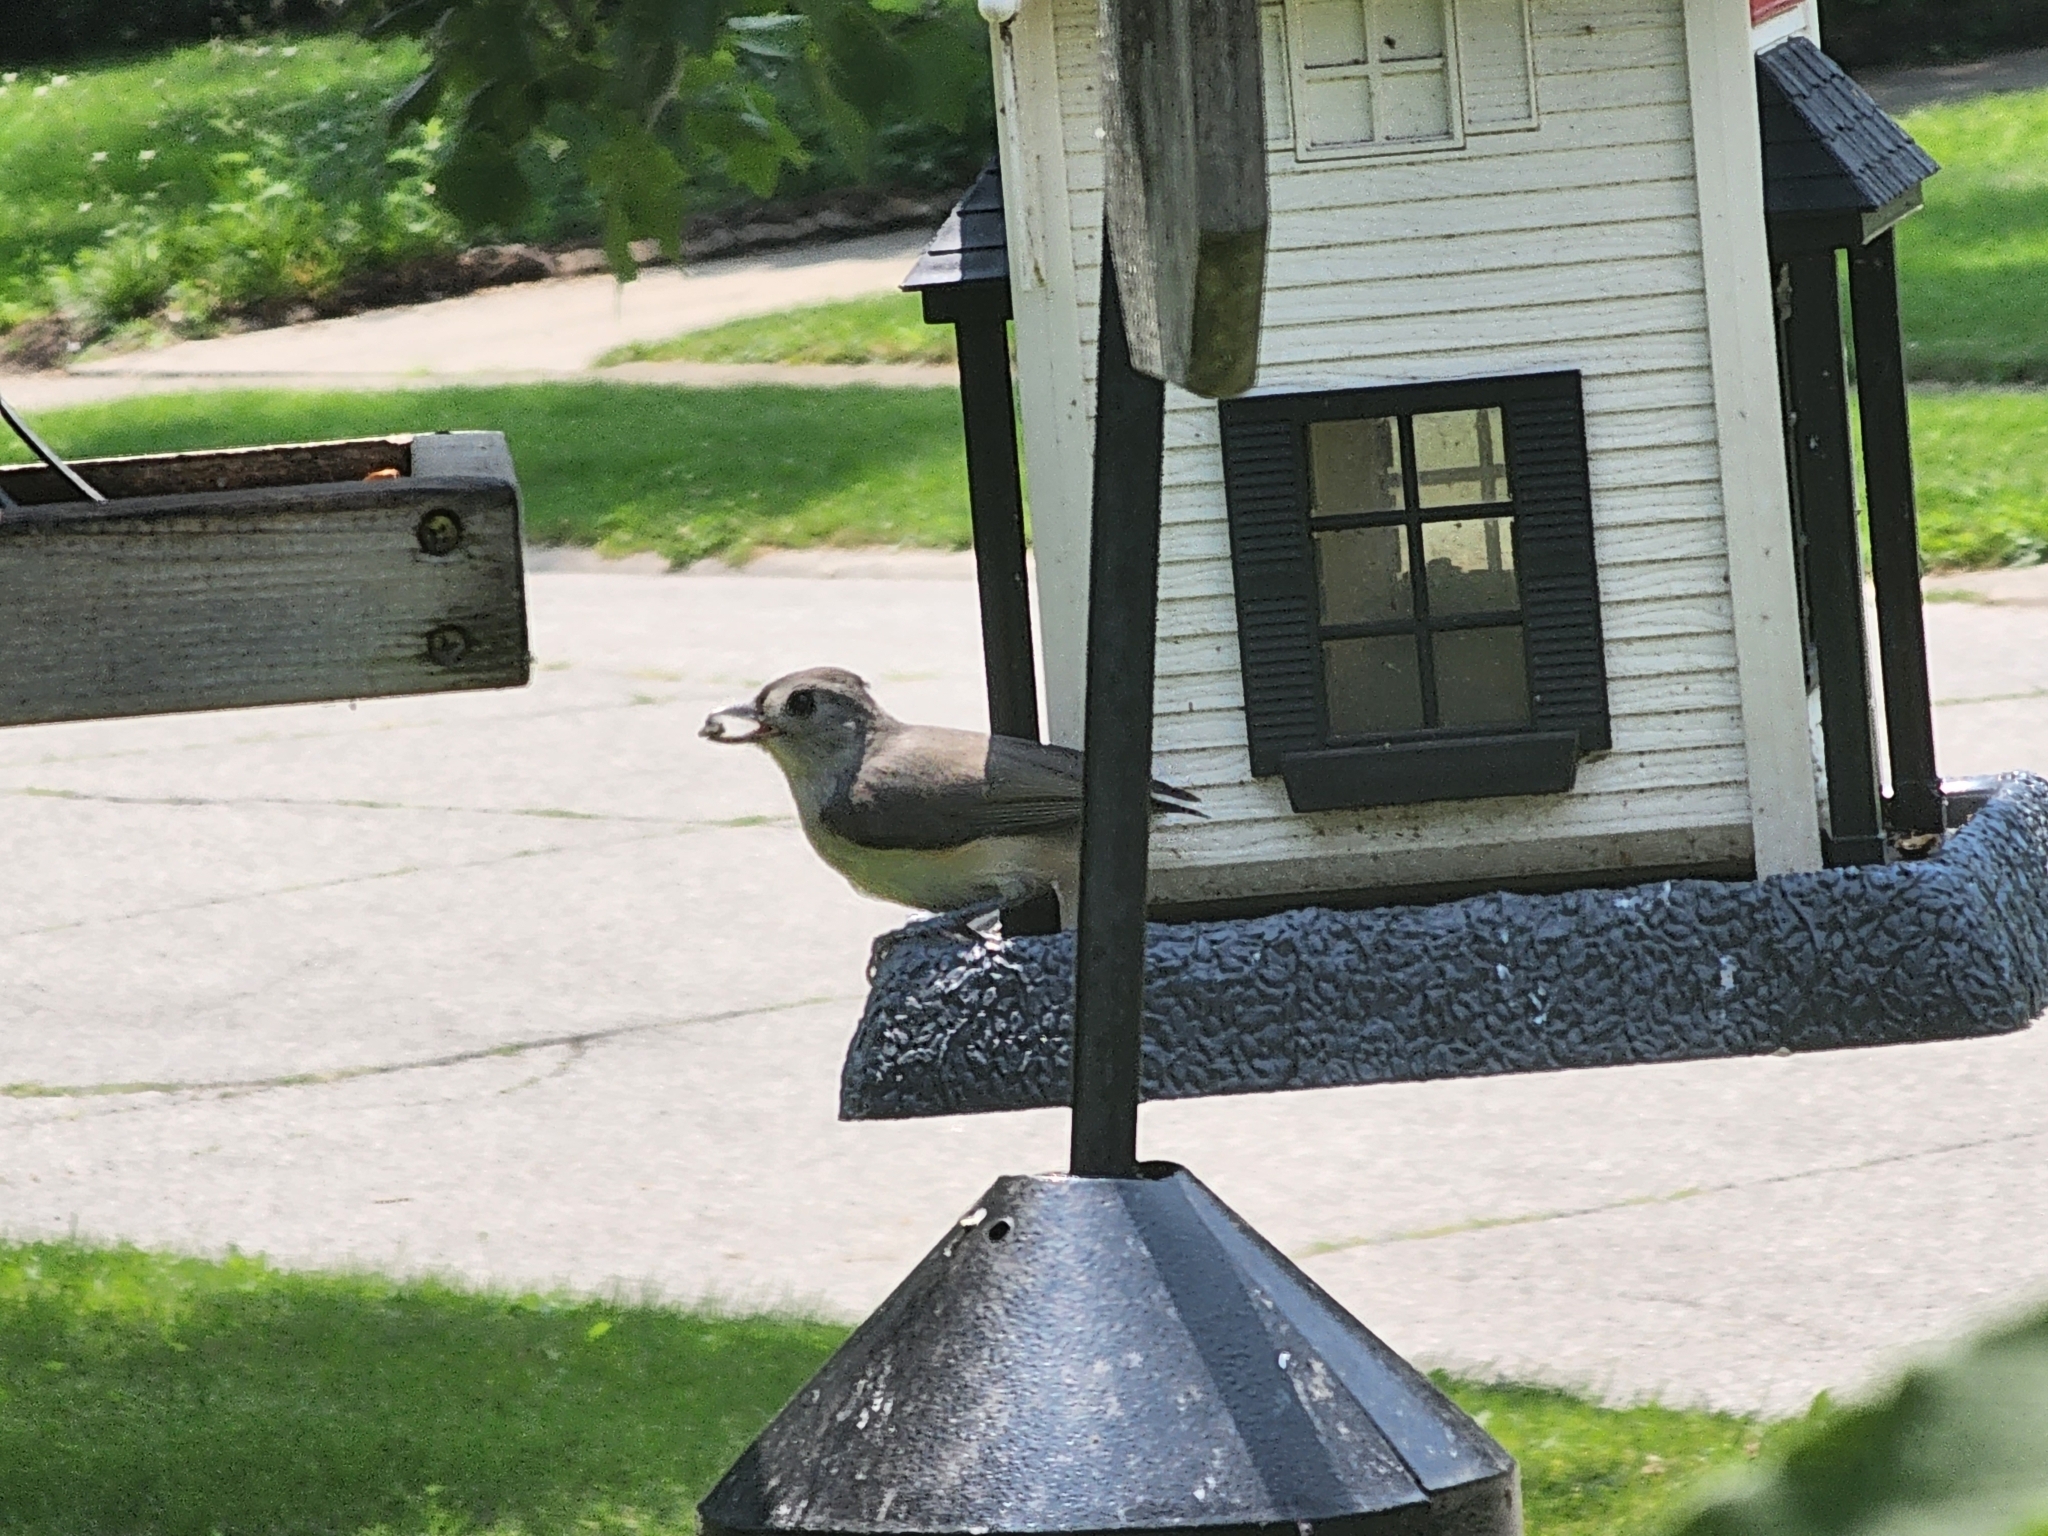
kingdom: Animalia
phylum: Chordata
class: Aves
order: Passeriformes
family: Paridae
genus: Baeolophus
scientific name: Baeolophus bicolor
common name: Tufted titmouse
